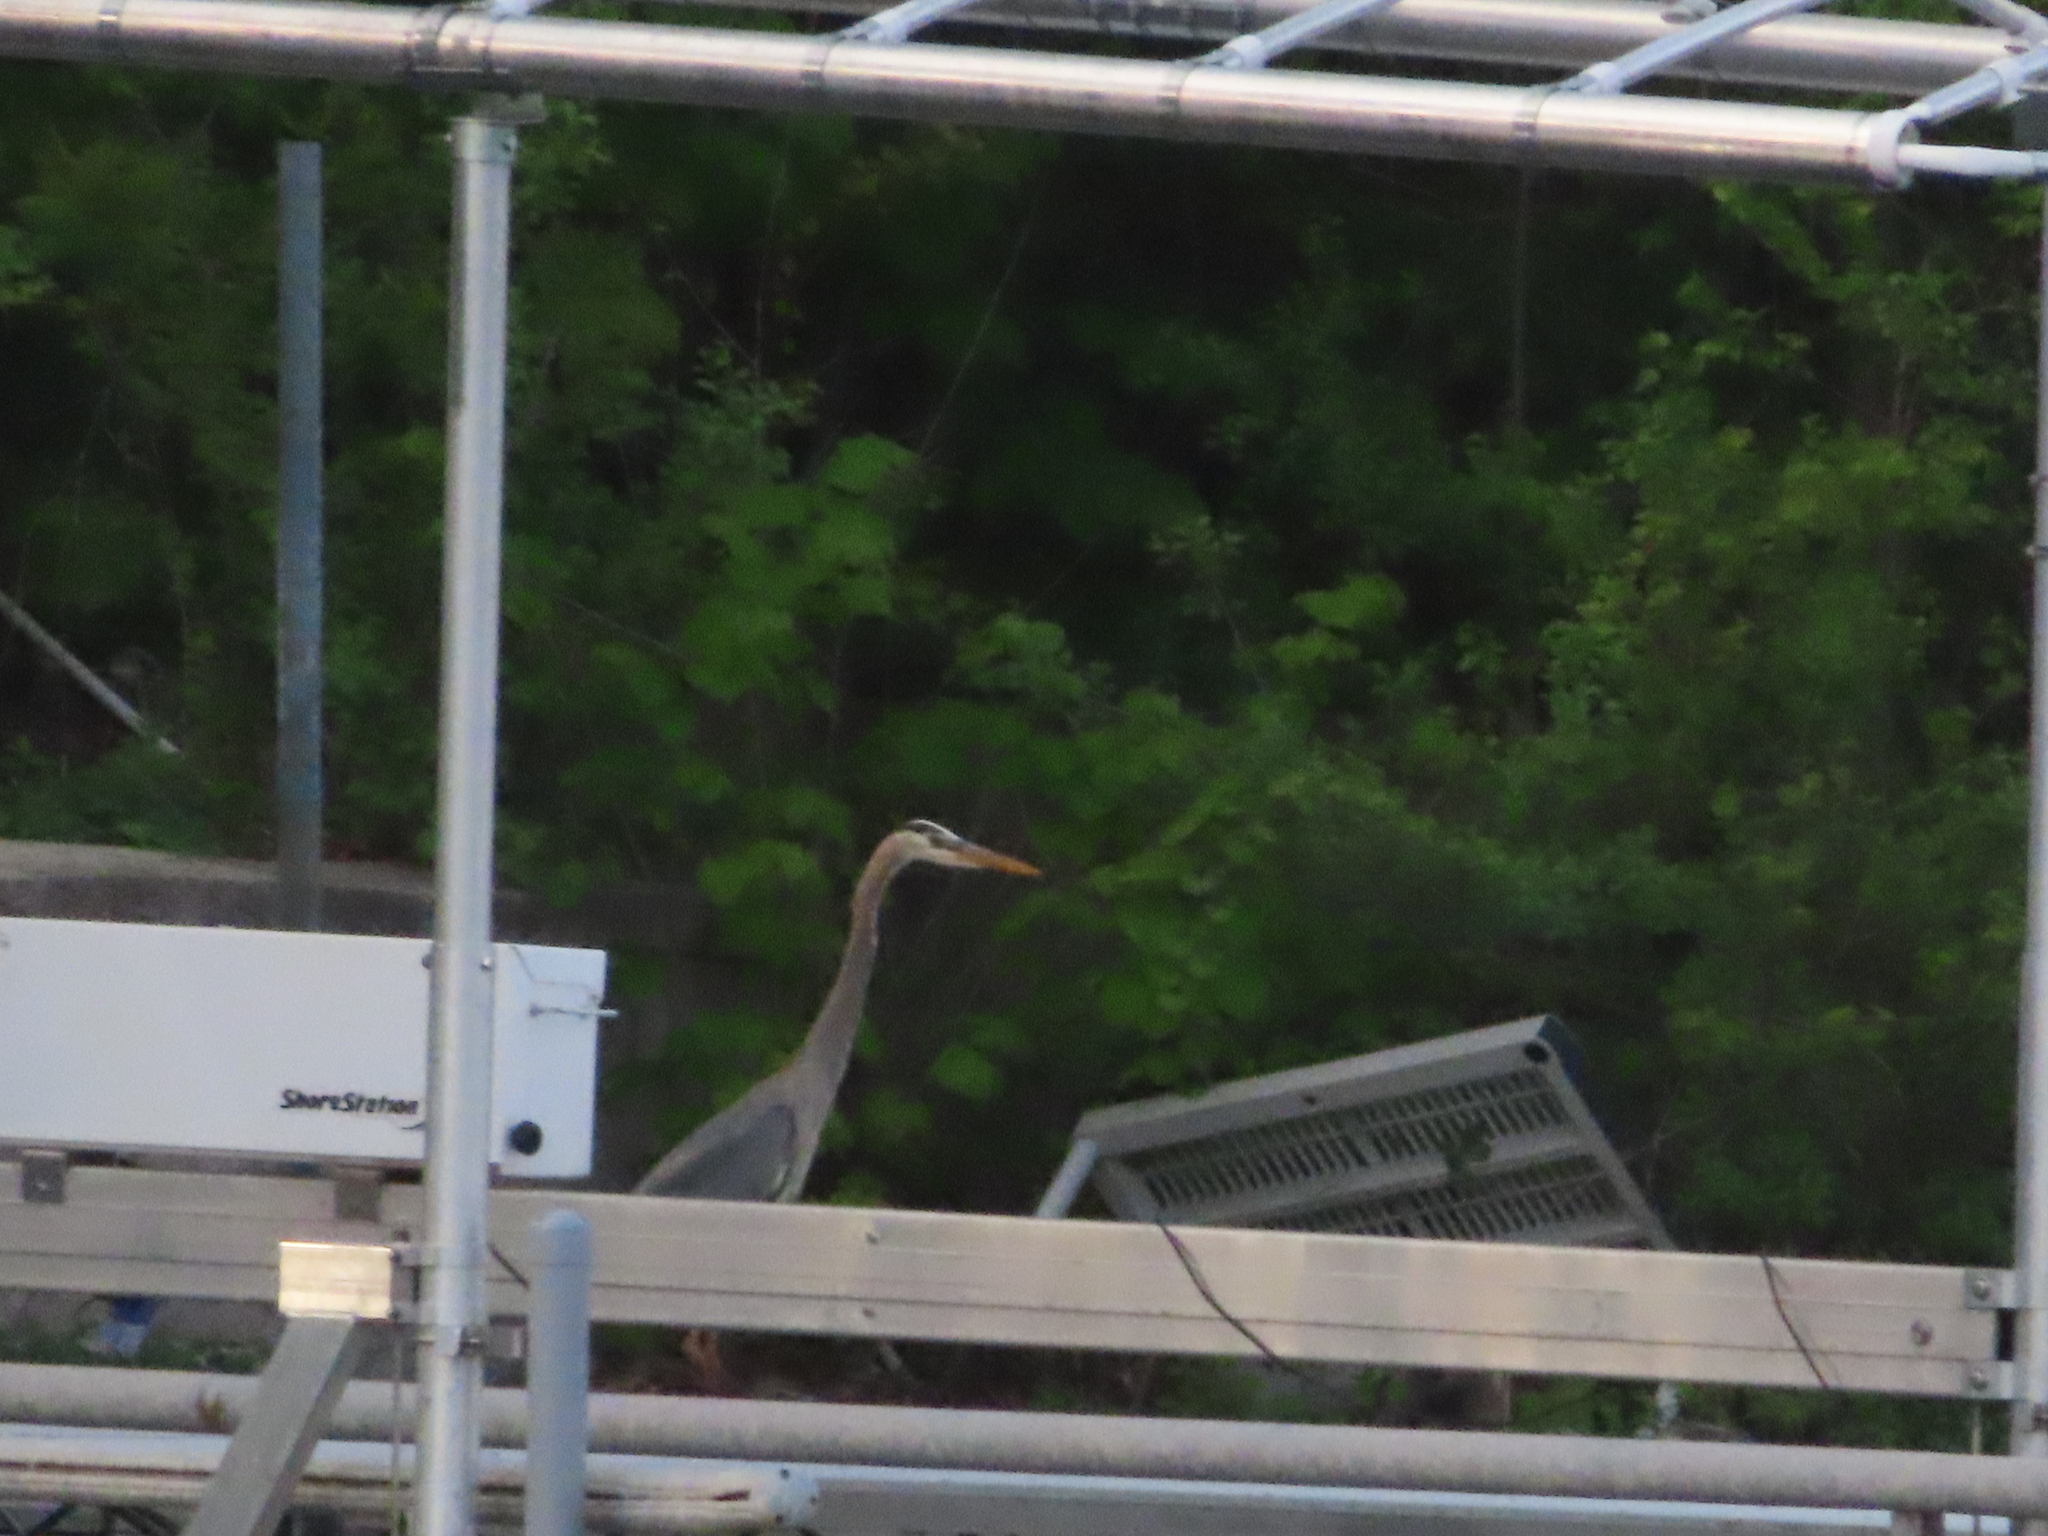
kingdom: Animalia
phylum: Chordata
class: Aves
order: Pelecaniformes
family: Ardeidae
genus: Ardea
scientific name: Ardea herodias
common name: Great blue heron
